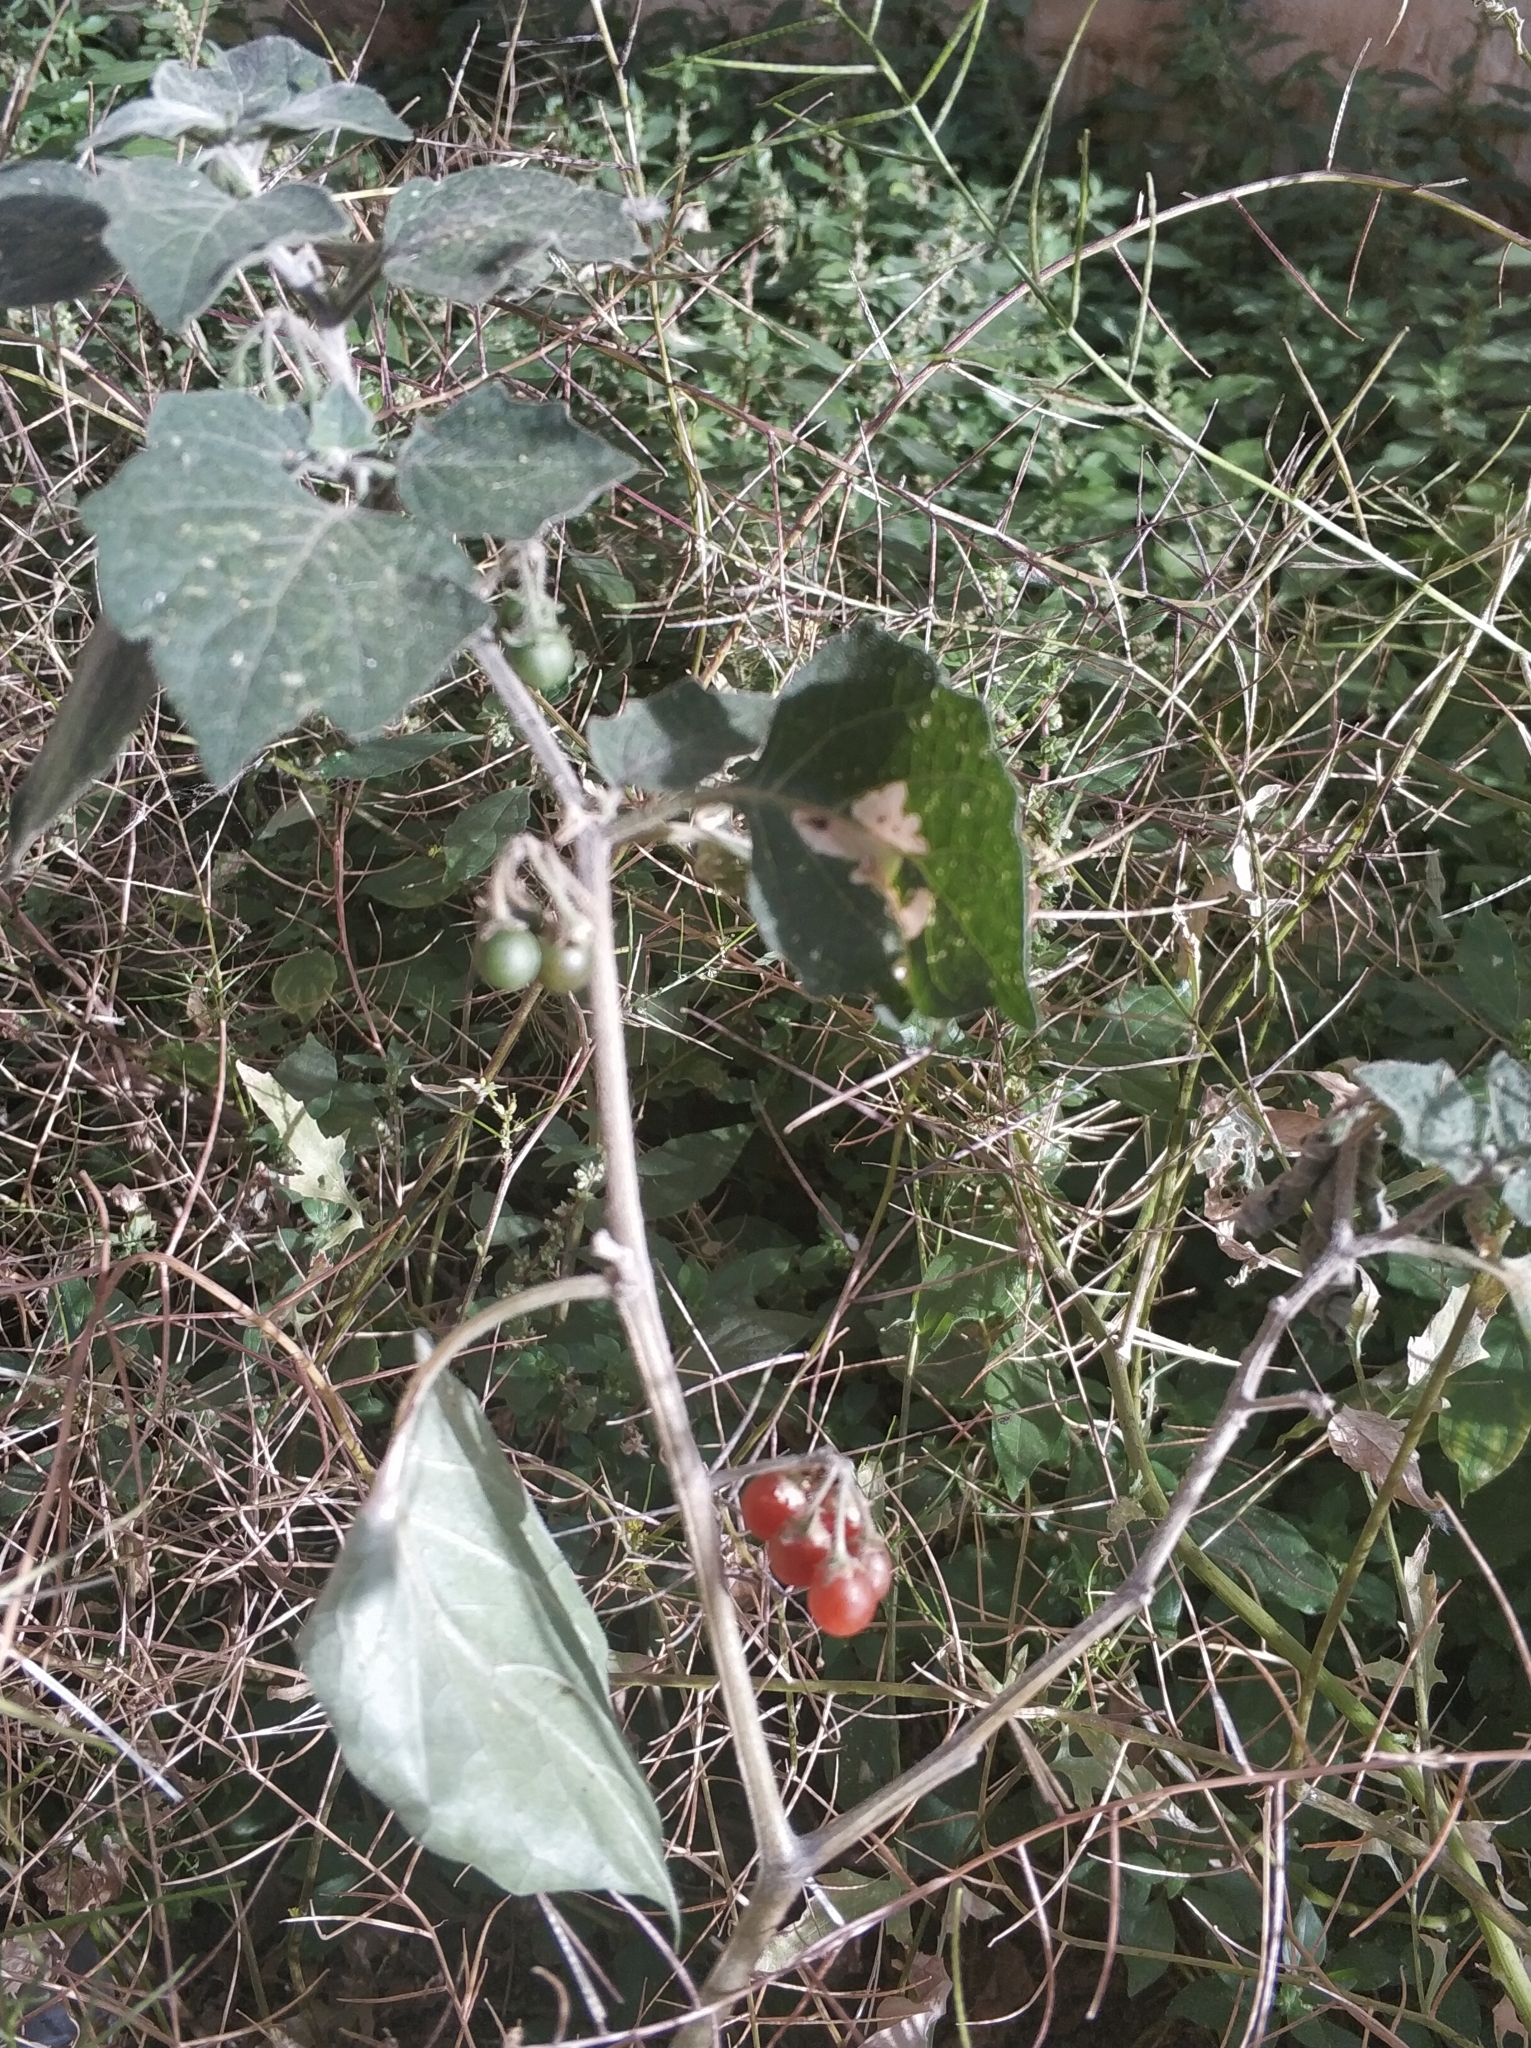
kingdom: Plantae
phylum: Tracheophyta
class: Magnoliopsida
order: Solanales
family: Solanaceae
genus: Solanum
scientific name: Solanum villosum
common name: Red nightshade
